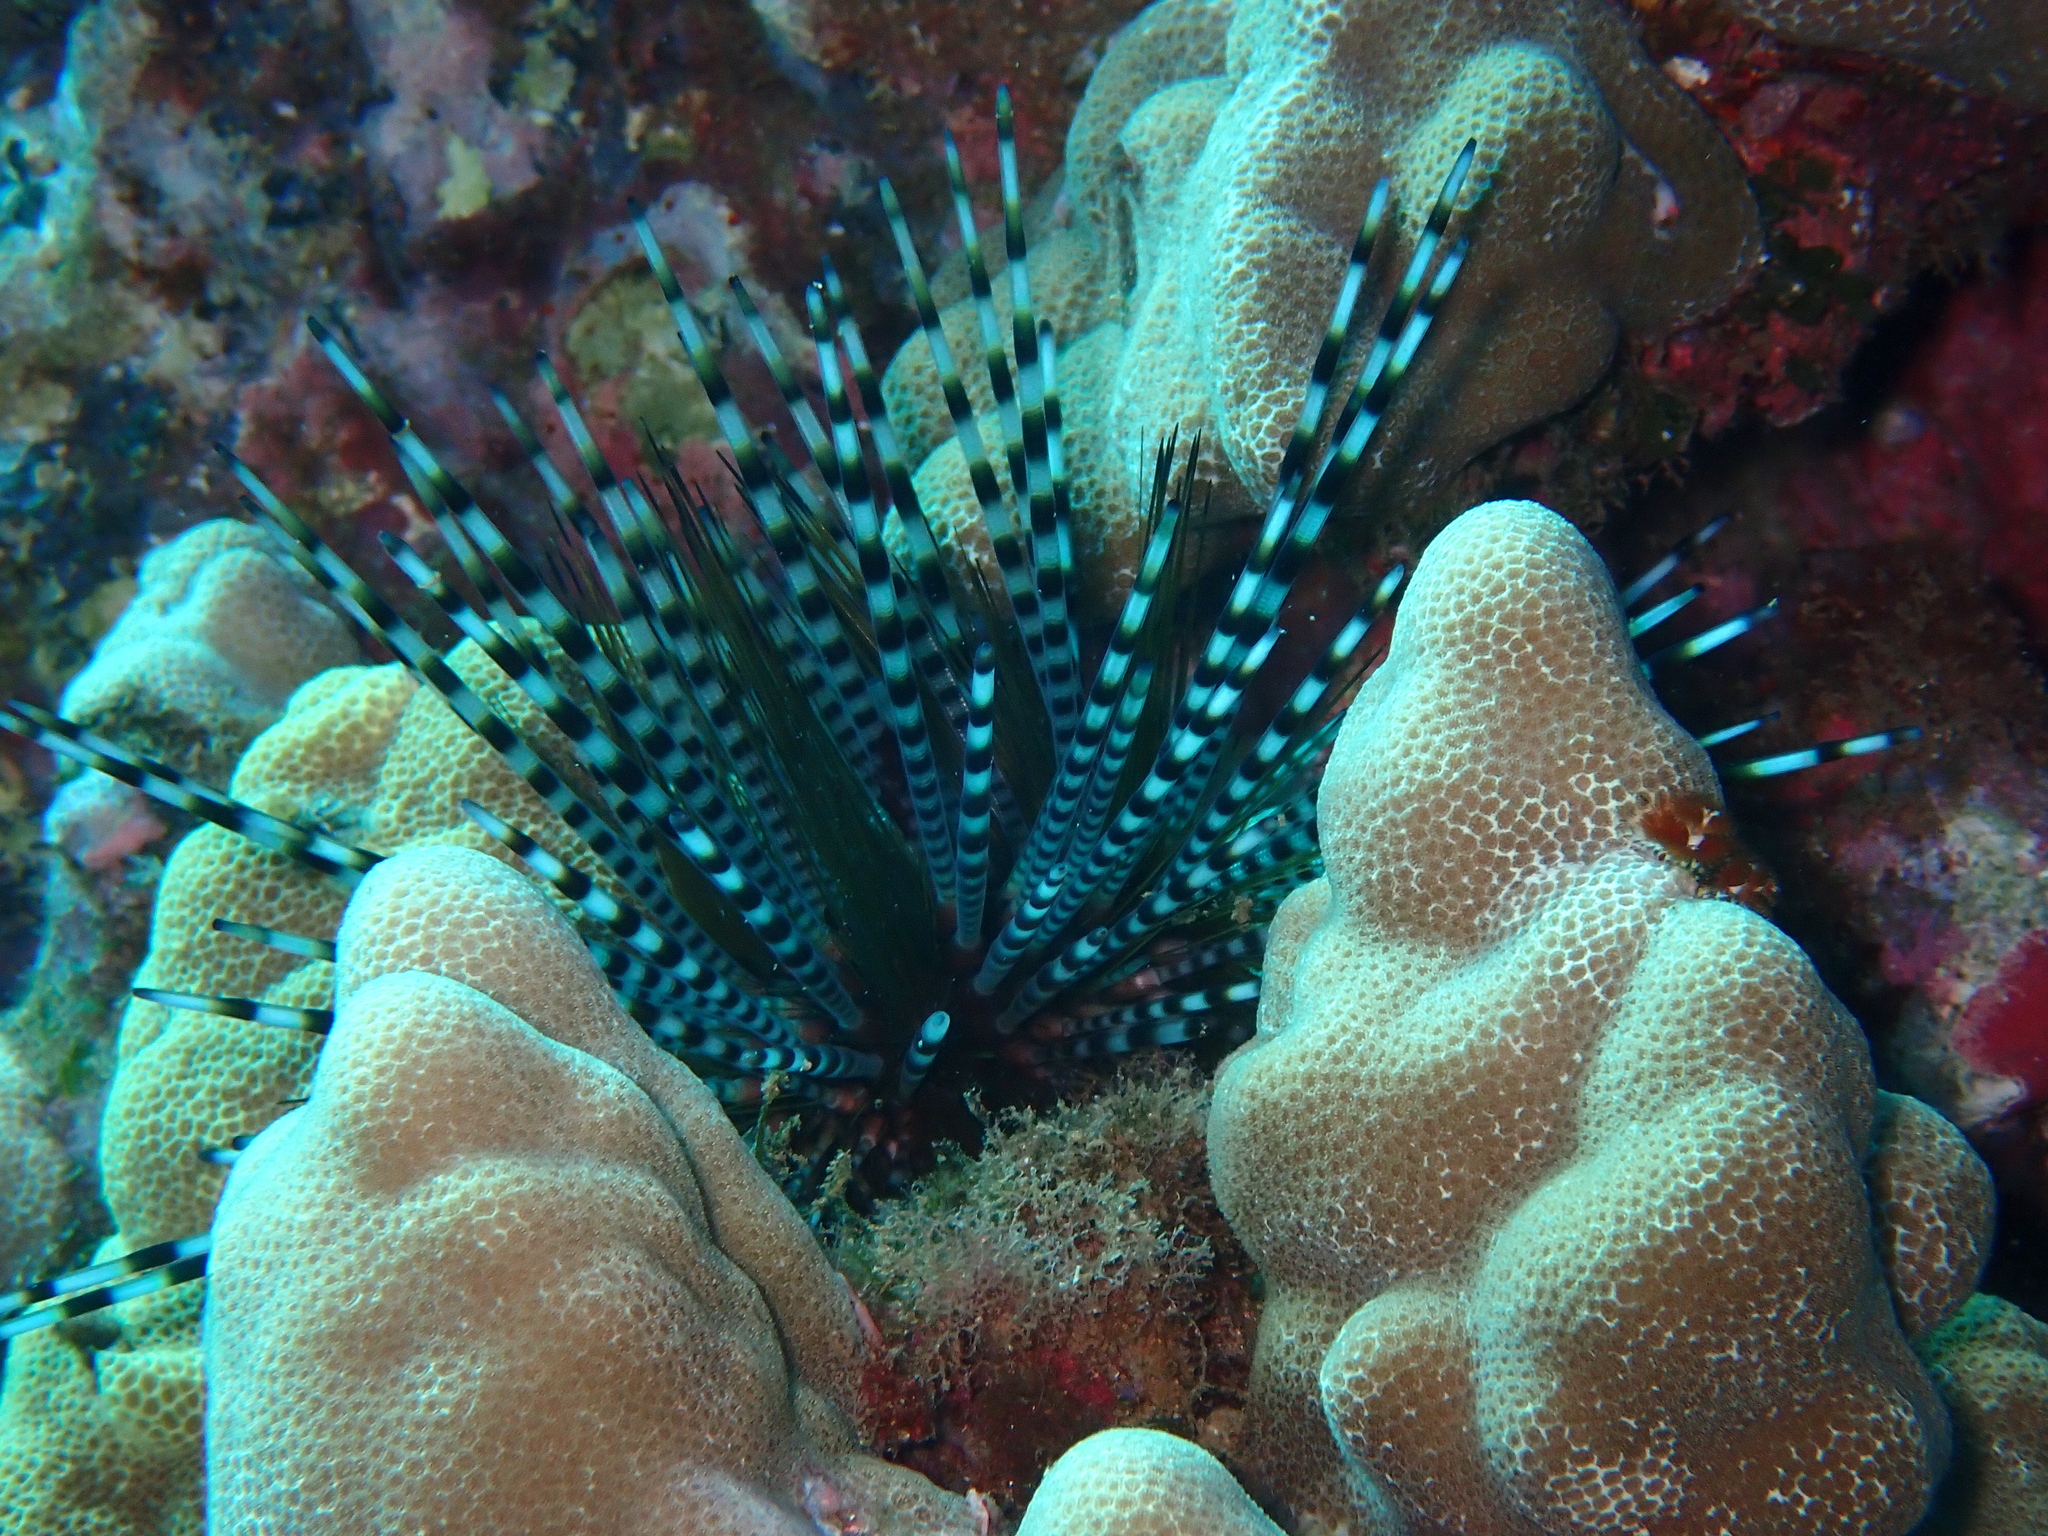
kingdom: Animalia
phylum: Echinodermata
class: Echinoidea
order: Diadematoida
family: Diadematidae
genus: Echinothrix
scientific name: Echinothrix calamaris
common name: Banded sea urchin
